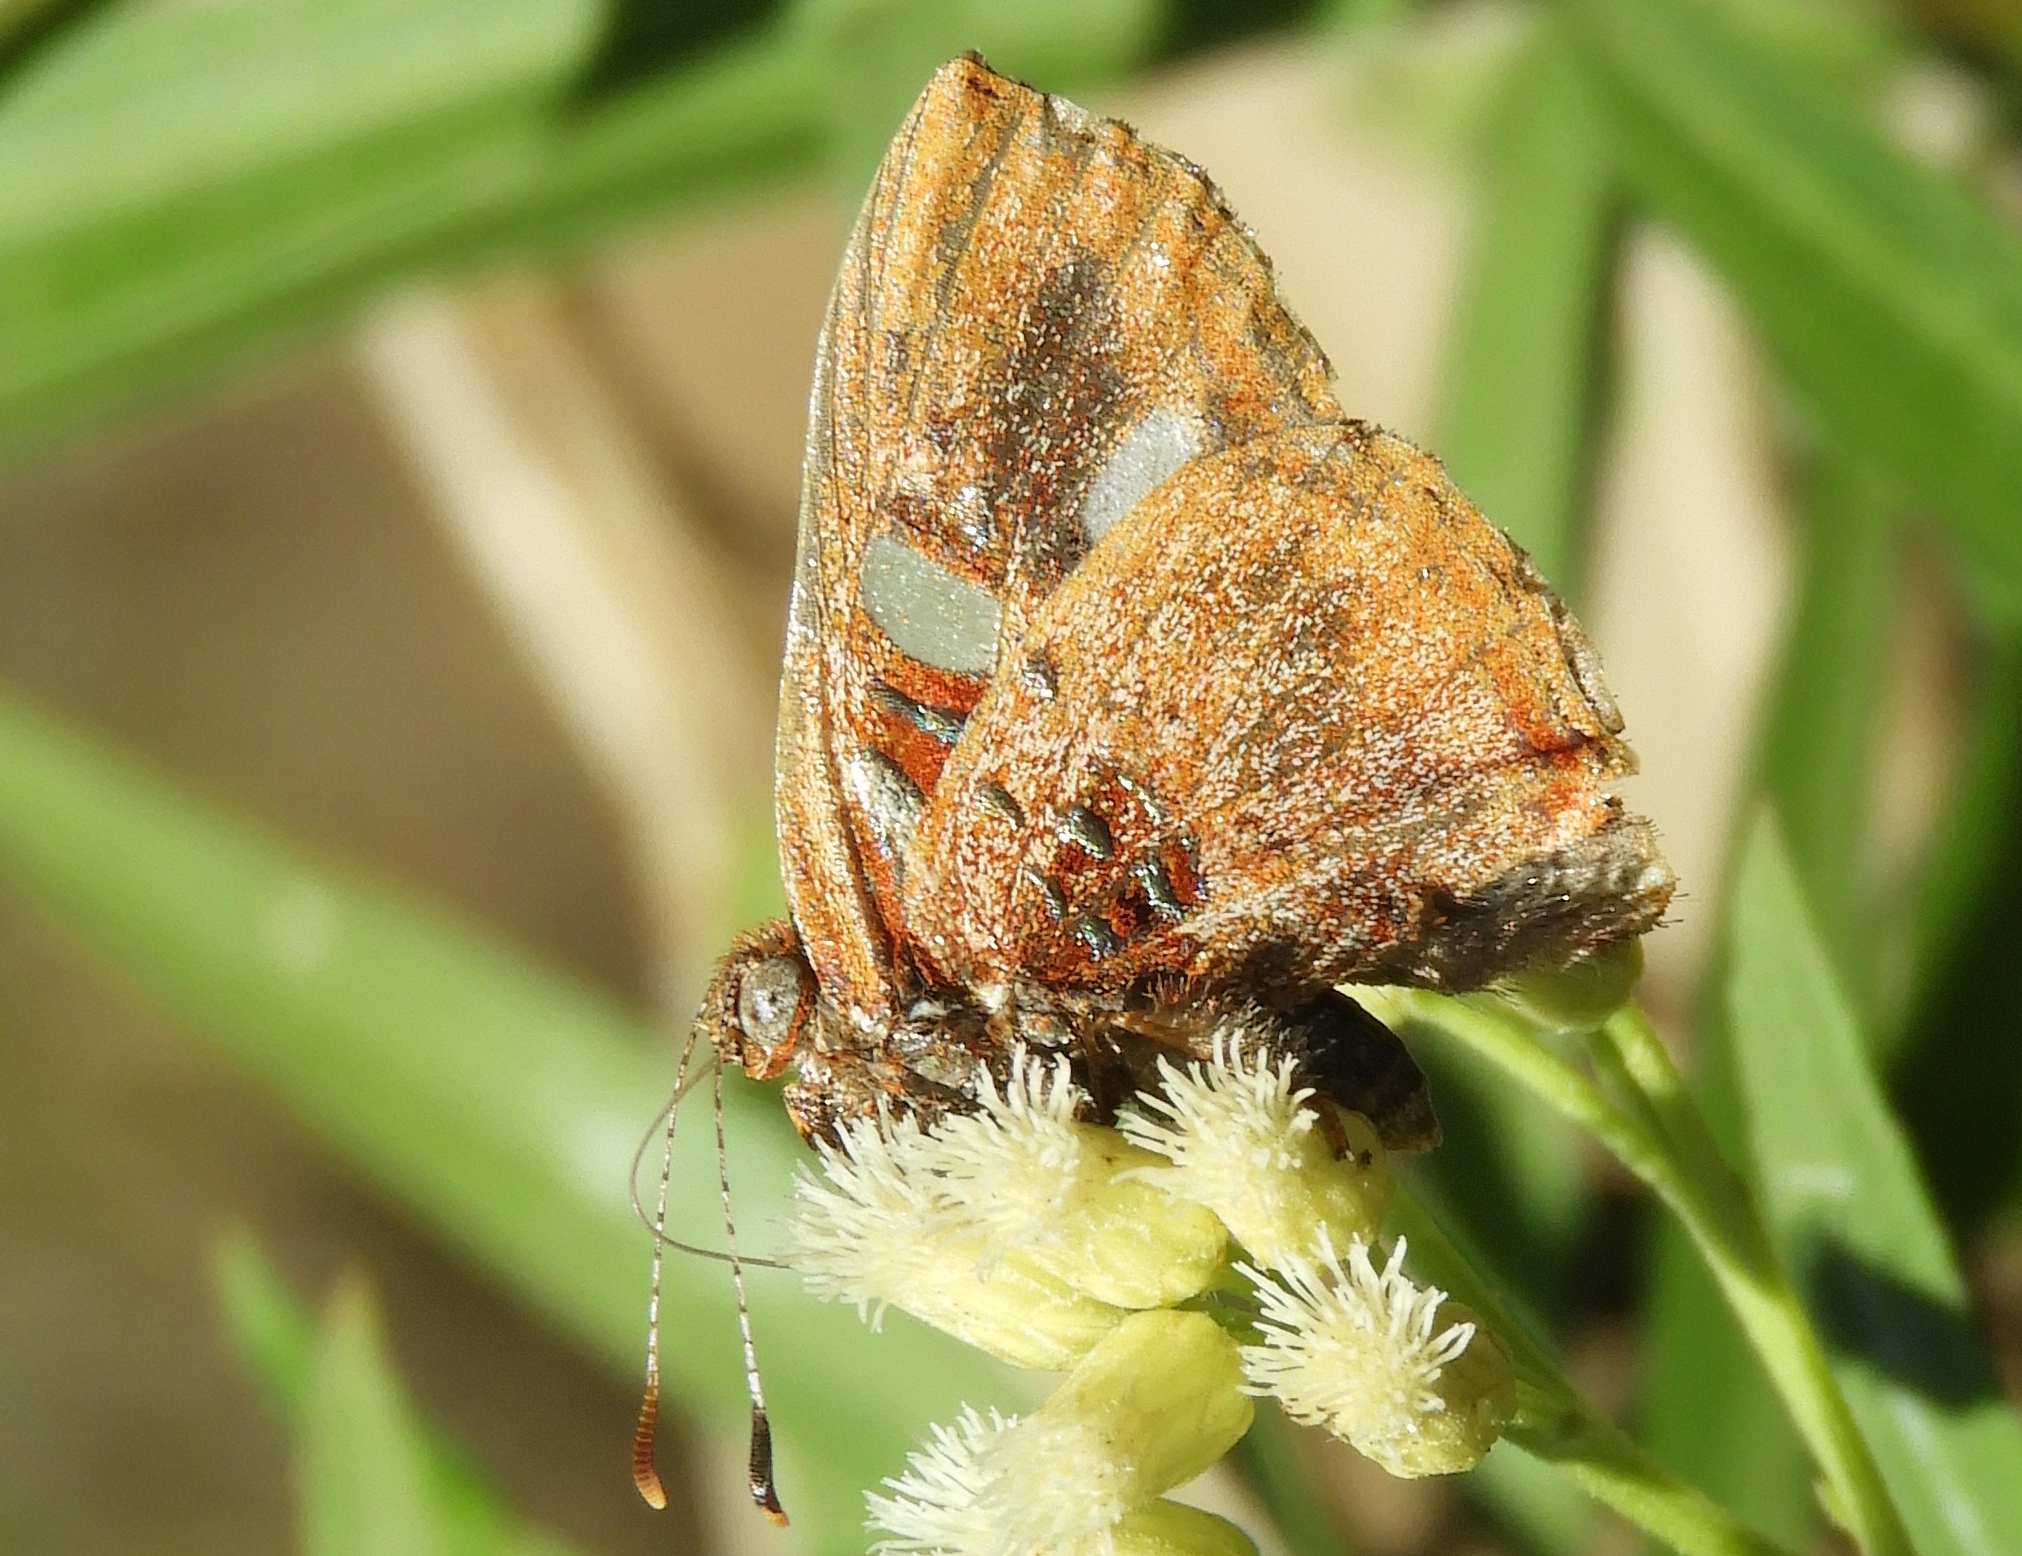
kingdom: Animalia
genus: Anteros
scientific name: Anteros carausius
